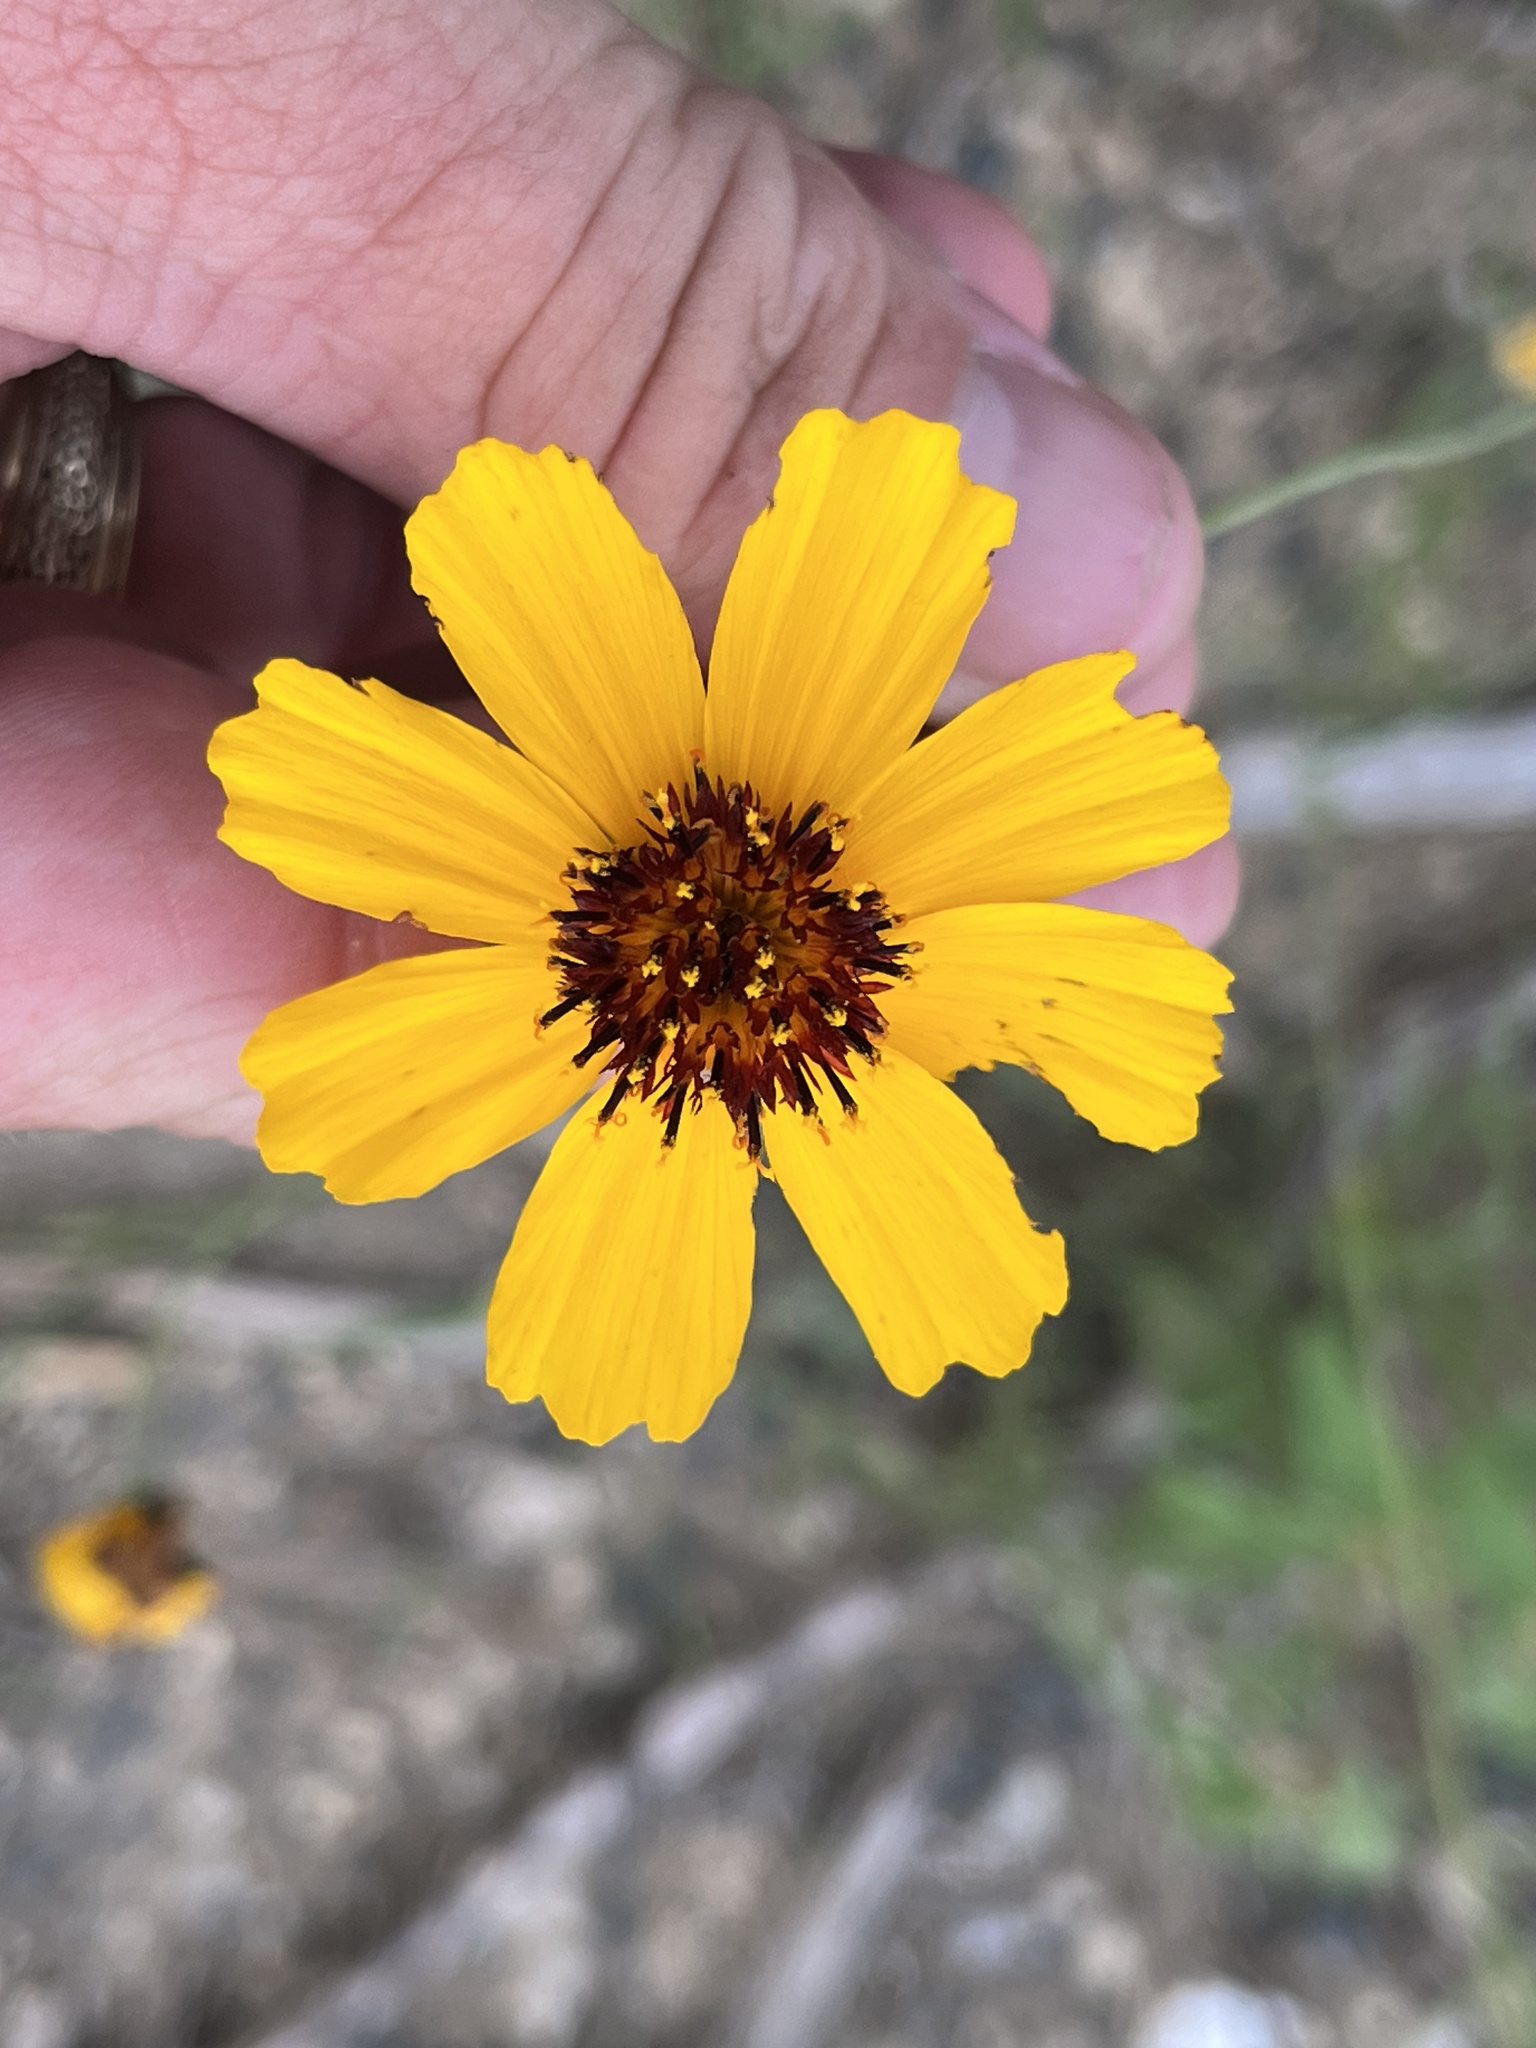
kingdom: Plantae
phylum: Tracheophyta
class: Magnoliopsida
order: Asterales
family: Asteraceae
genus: Thelesperma
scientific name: Thelesperma filifolium
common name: Stiff greenthread
